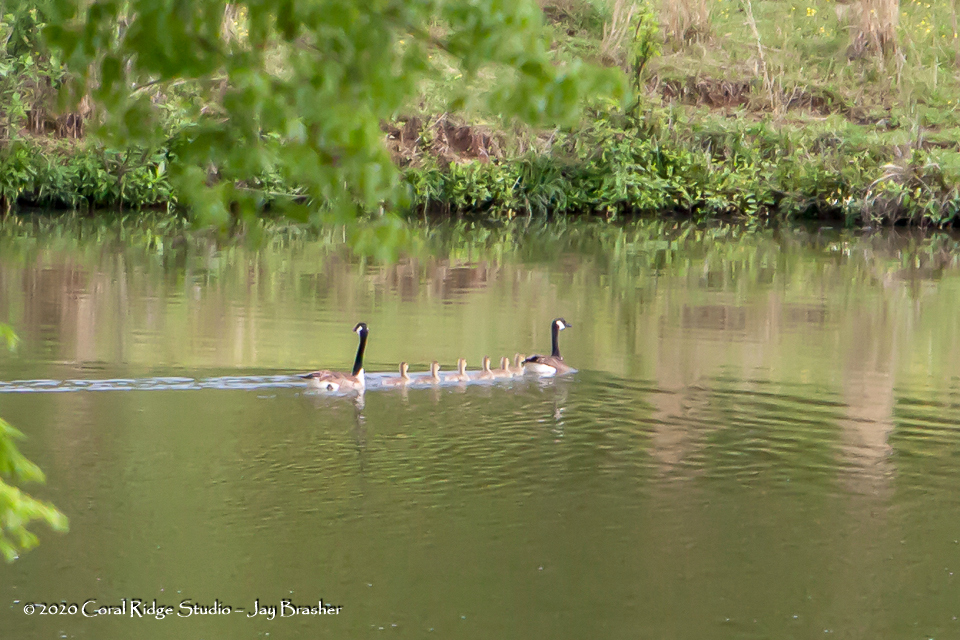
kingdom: Animalia
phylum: Chordata
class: Aves
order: Anseriformes
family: Anatidae
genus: Branta
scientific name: Branta canadensis
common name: Canada goose
